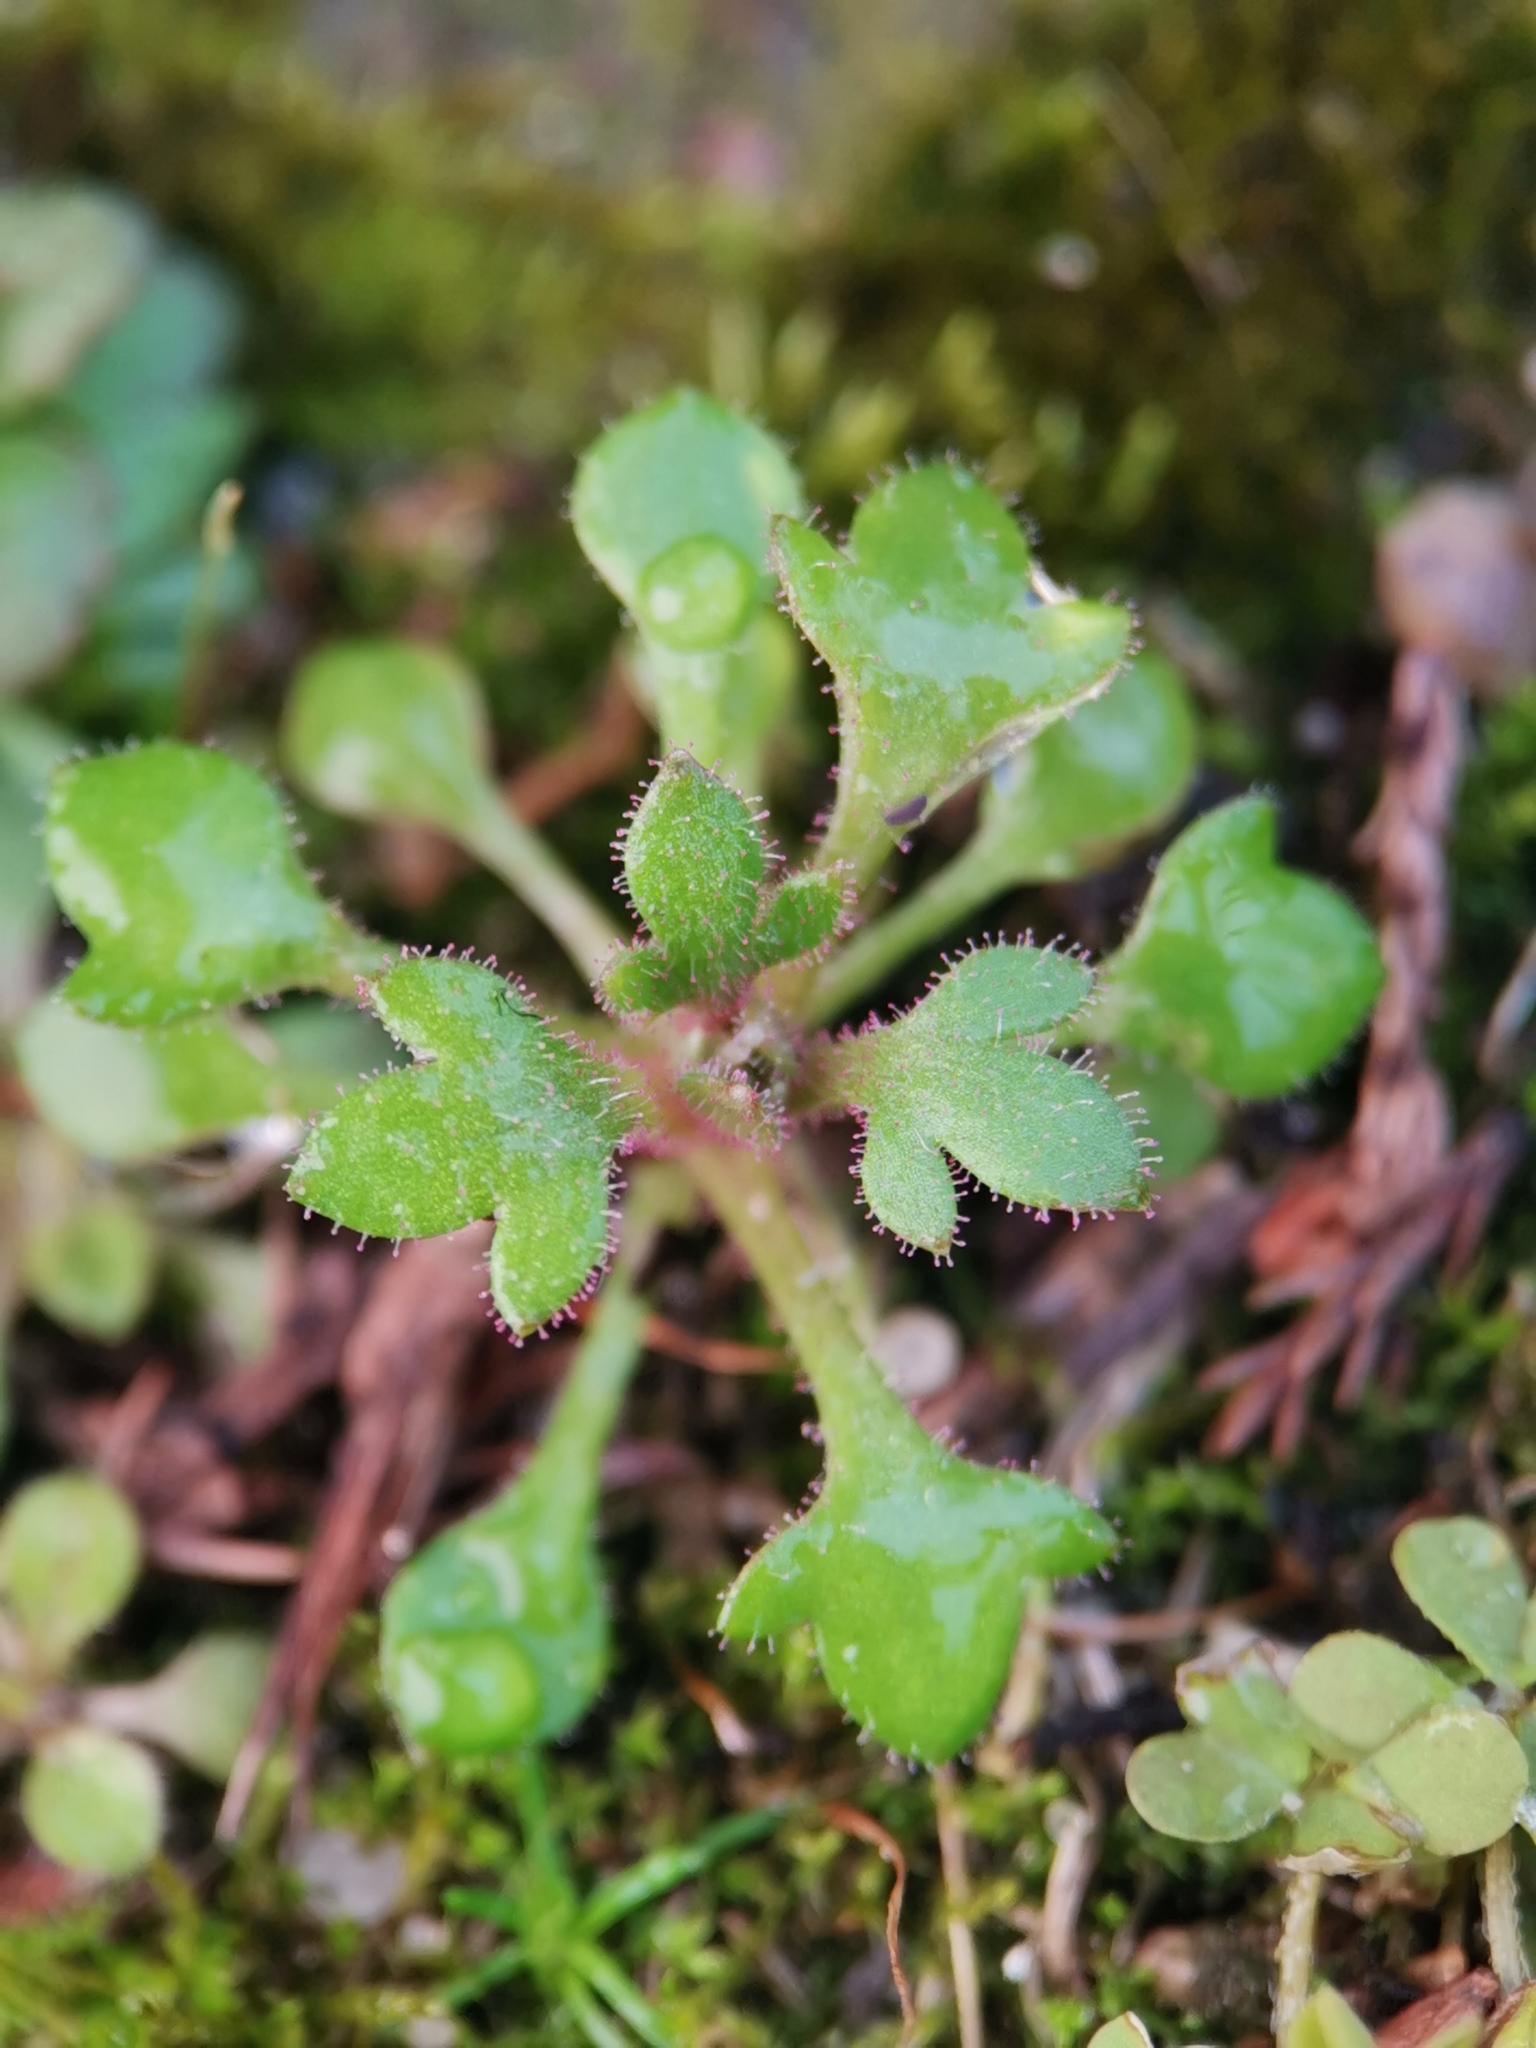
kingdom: Plantae
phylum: Tracheophyta
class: Magnoliopsida
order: Saxifragales
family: Saxifragaceae
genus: Saxifraga
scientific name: Saxifraga tridactylites
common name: Rue-leaved saxifrage
